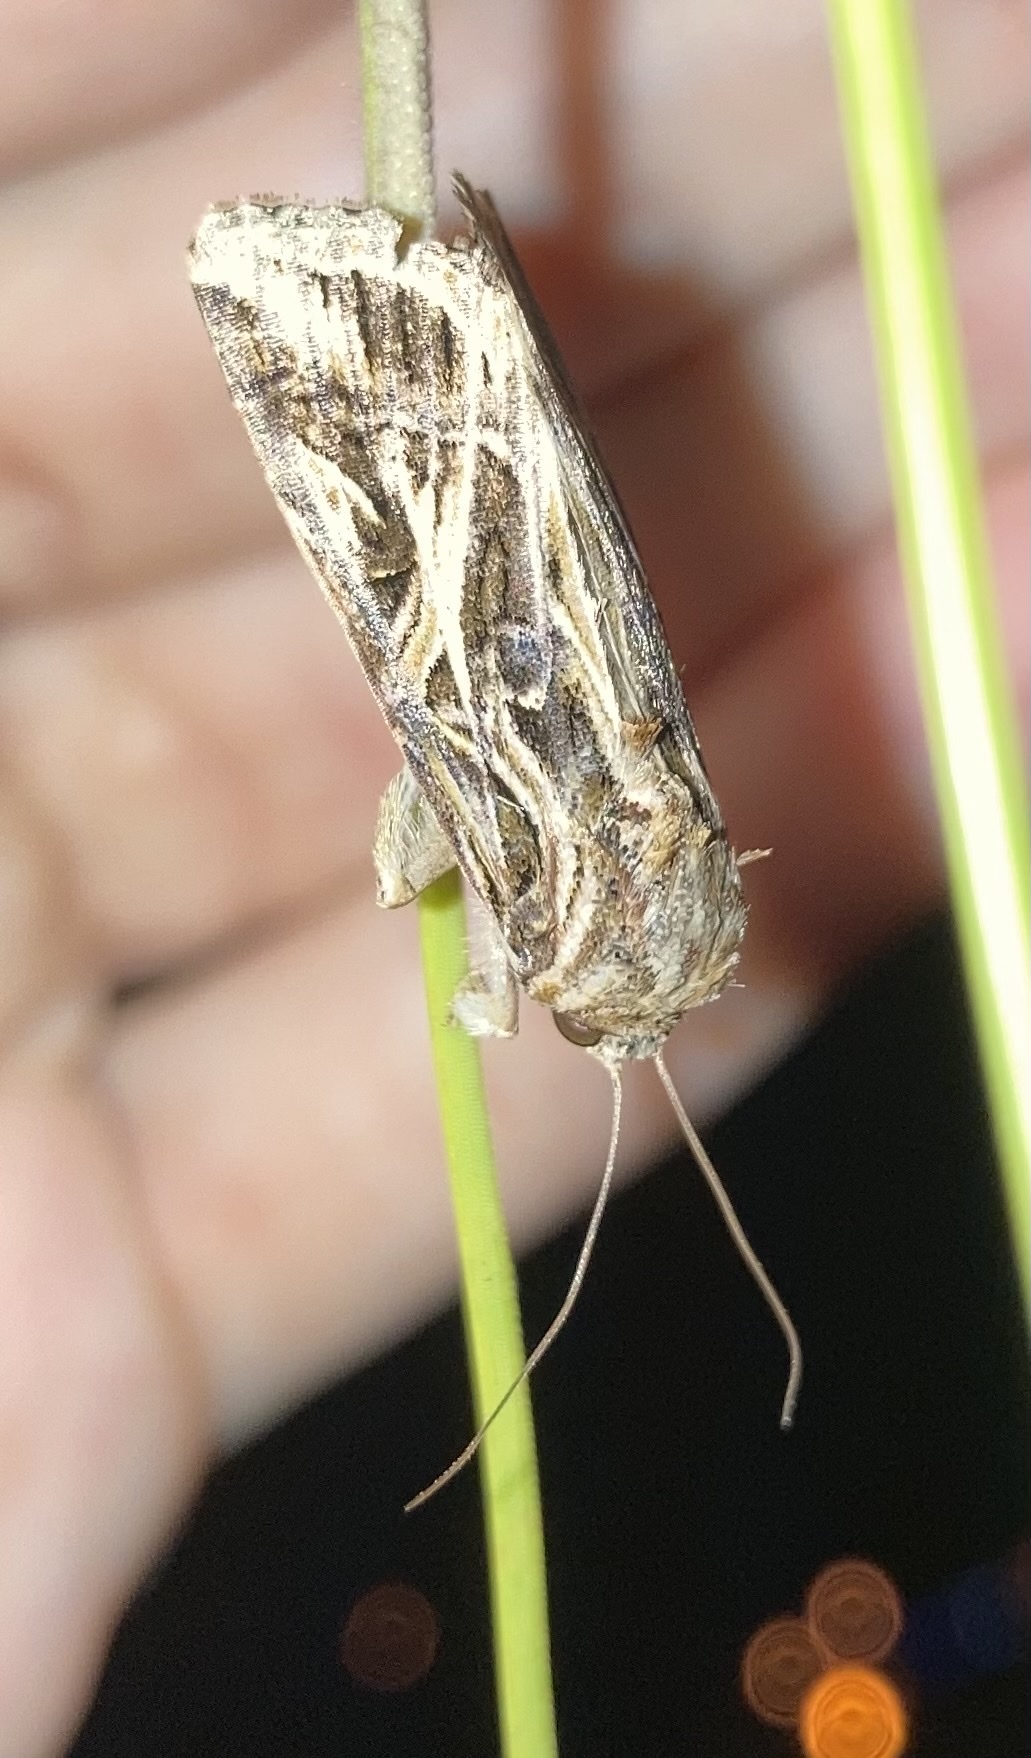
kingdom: Animalia
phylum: Arthropoda
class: Insecta
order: Lepidoptera
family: Noctuidae
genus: Spodoptera
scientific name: Spodoptera pulchella
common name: Caribbean armyworm moth
